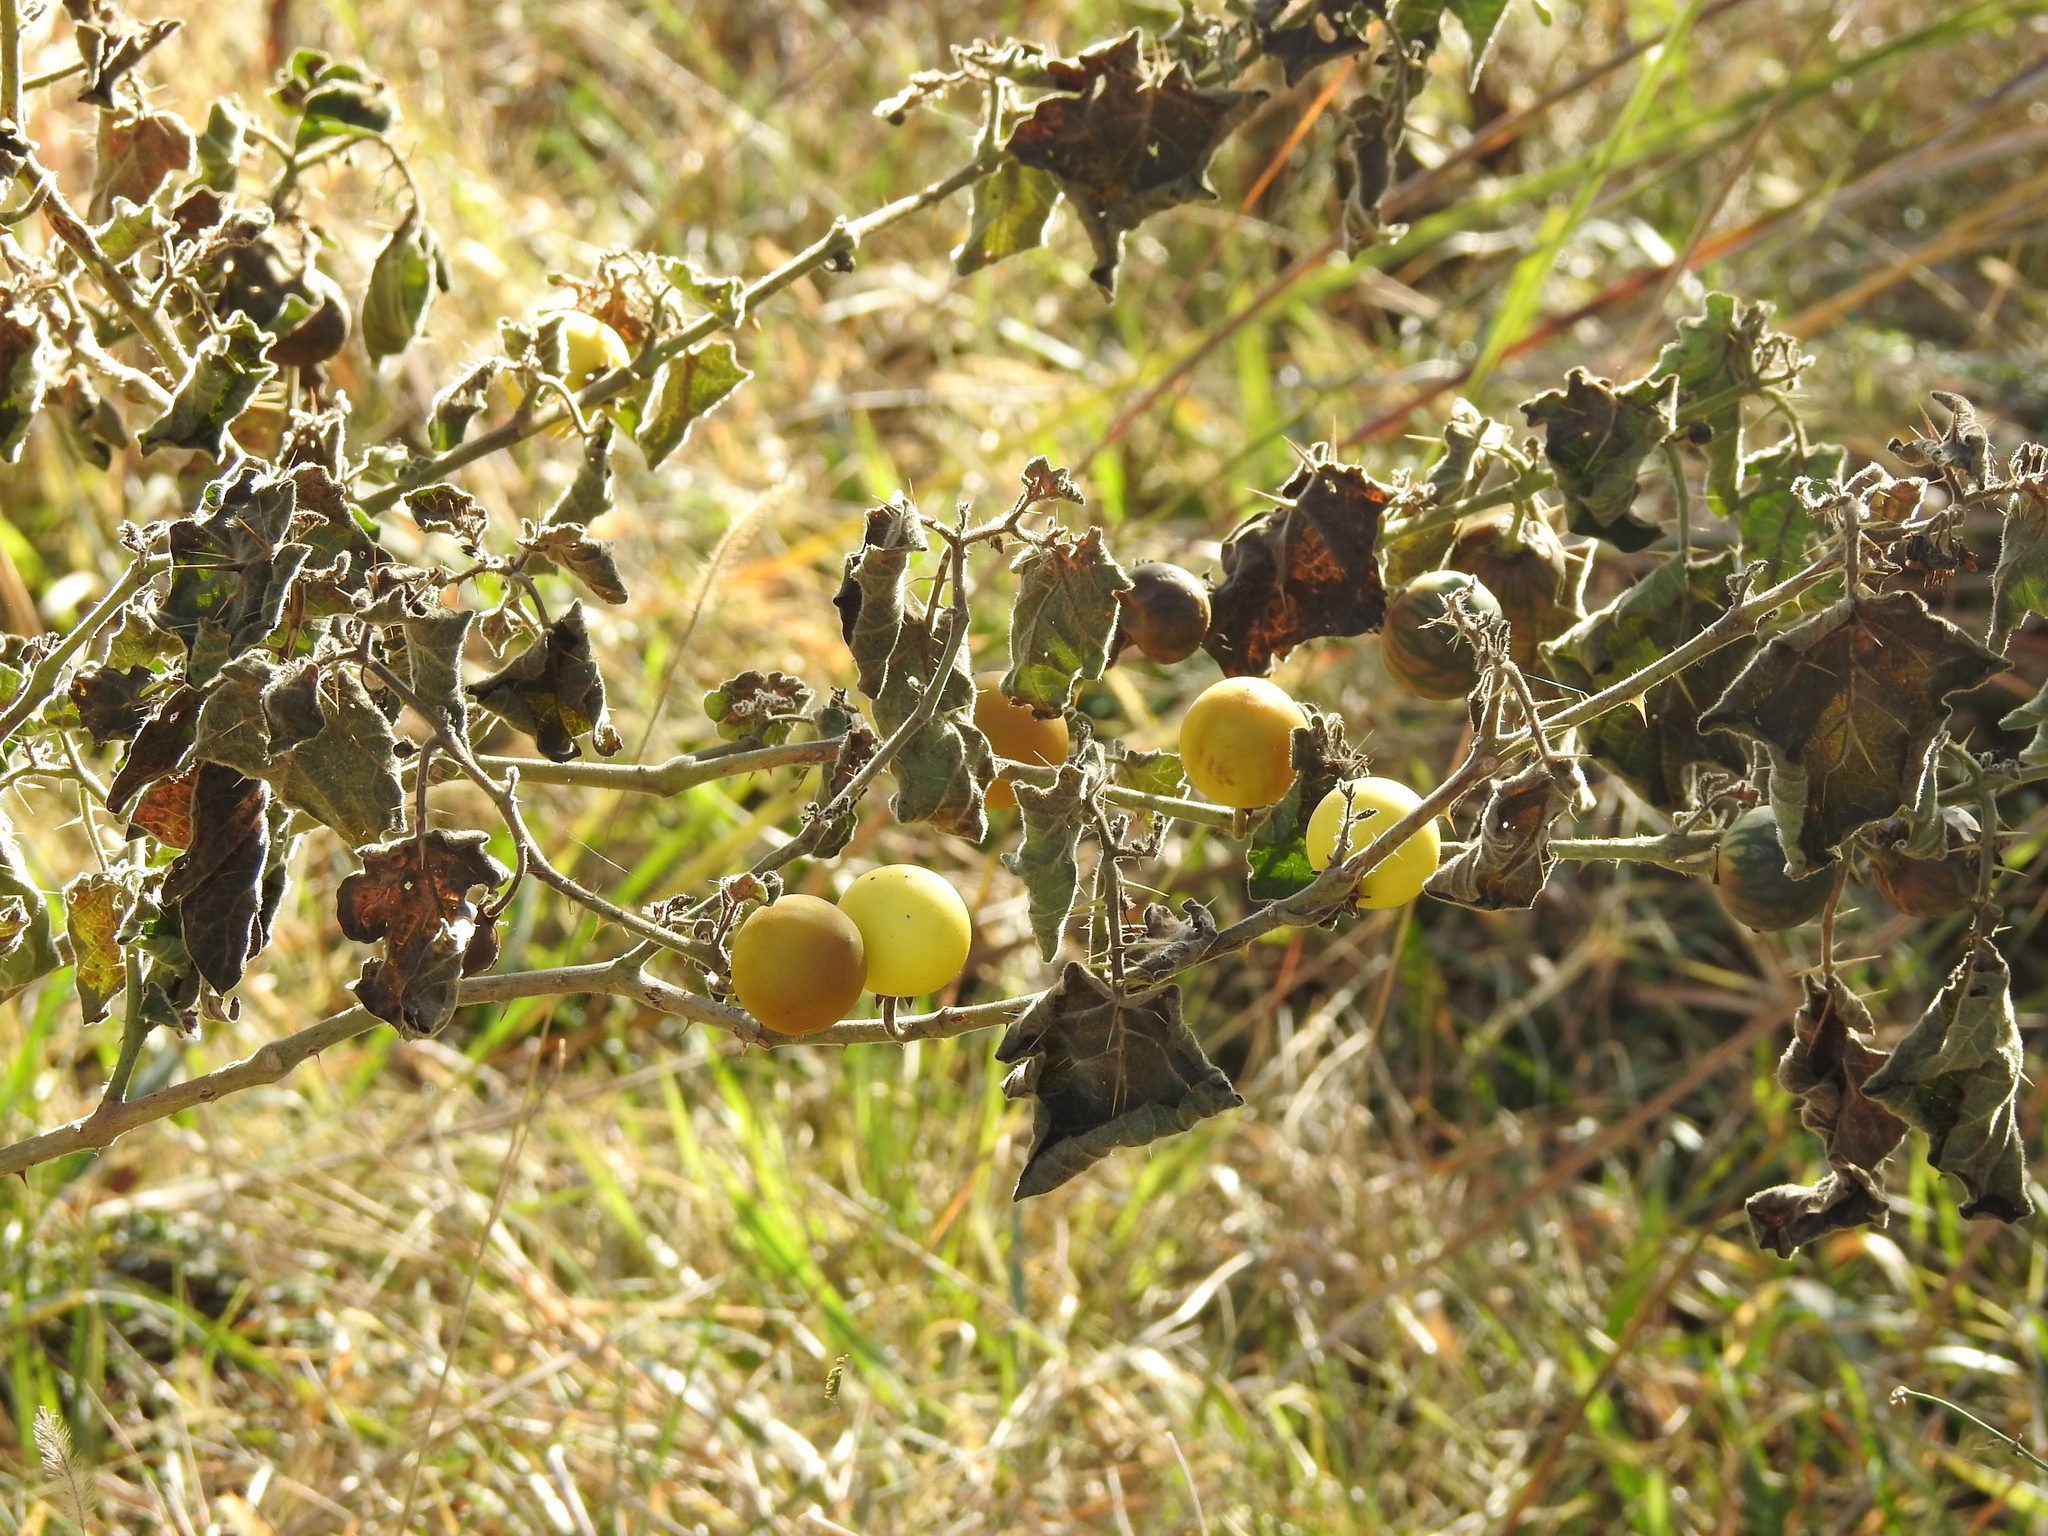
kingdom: Plantae
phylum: Tracheophyta
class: Magnoliopsida
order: Solanales
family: Solanaceae
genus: Solanum
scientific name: Solanum viarum
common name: Tropical soda apple
